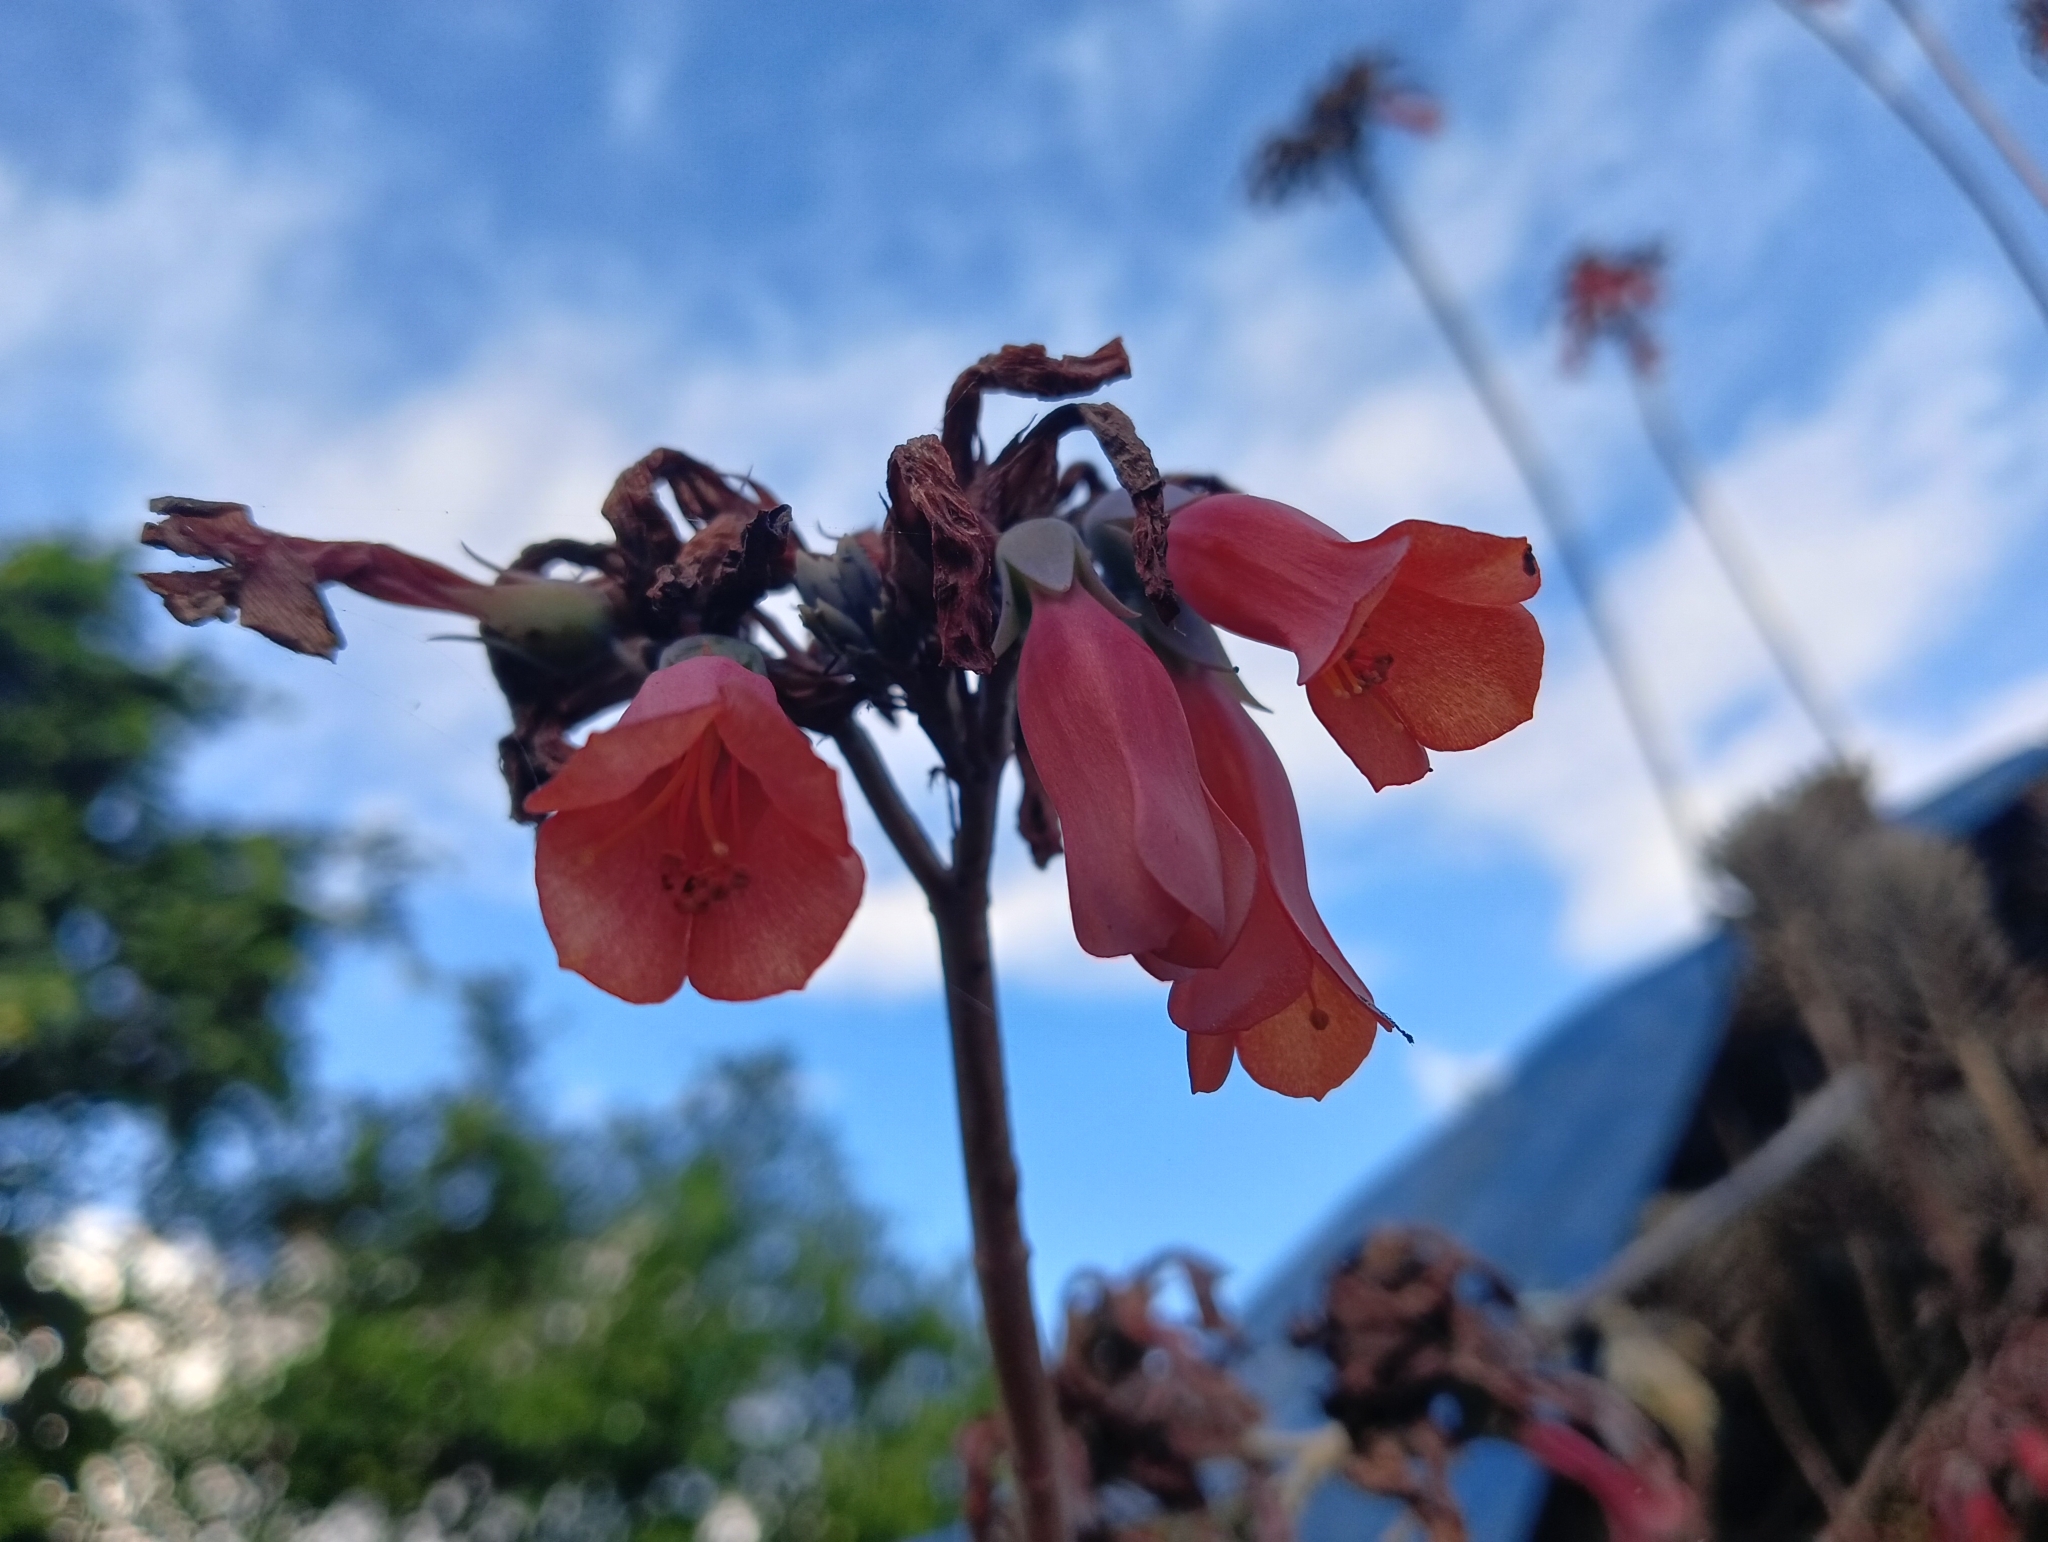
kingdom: Plantae
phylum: Tracheophyta
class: Magnoliopsida
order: Saxifragales
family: Crassulaceae
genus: Kalanchoe
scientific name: Kalanchoe delagoensis
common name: Chandelier plant
